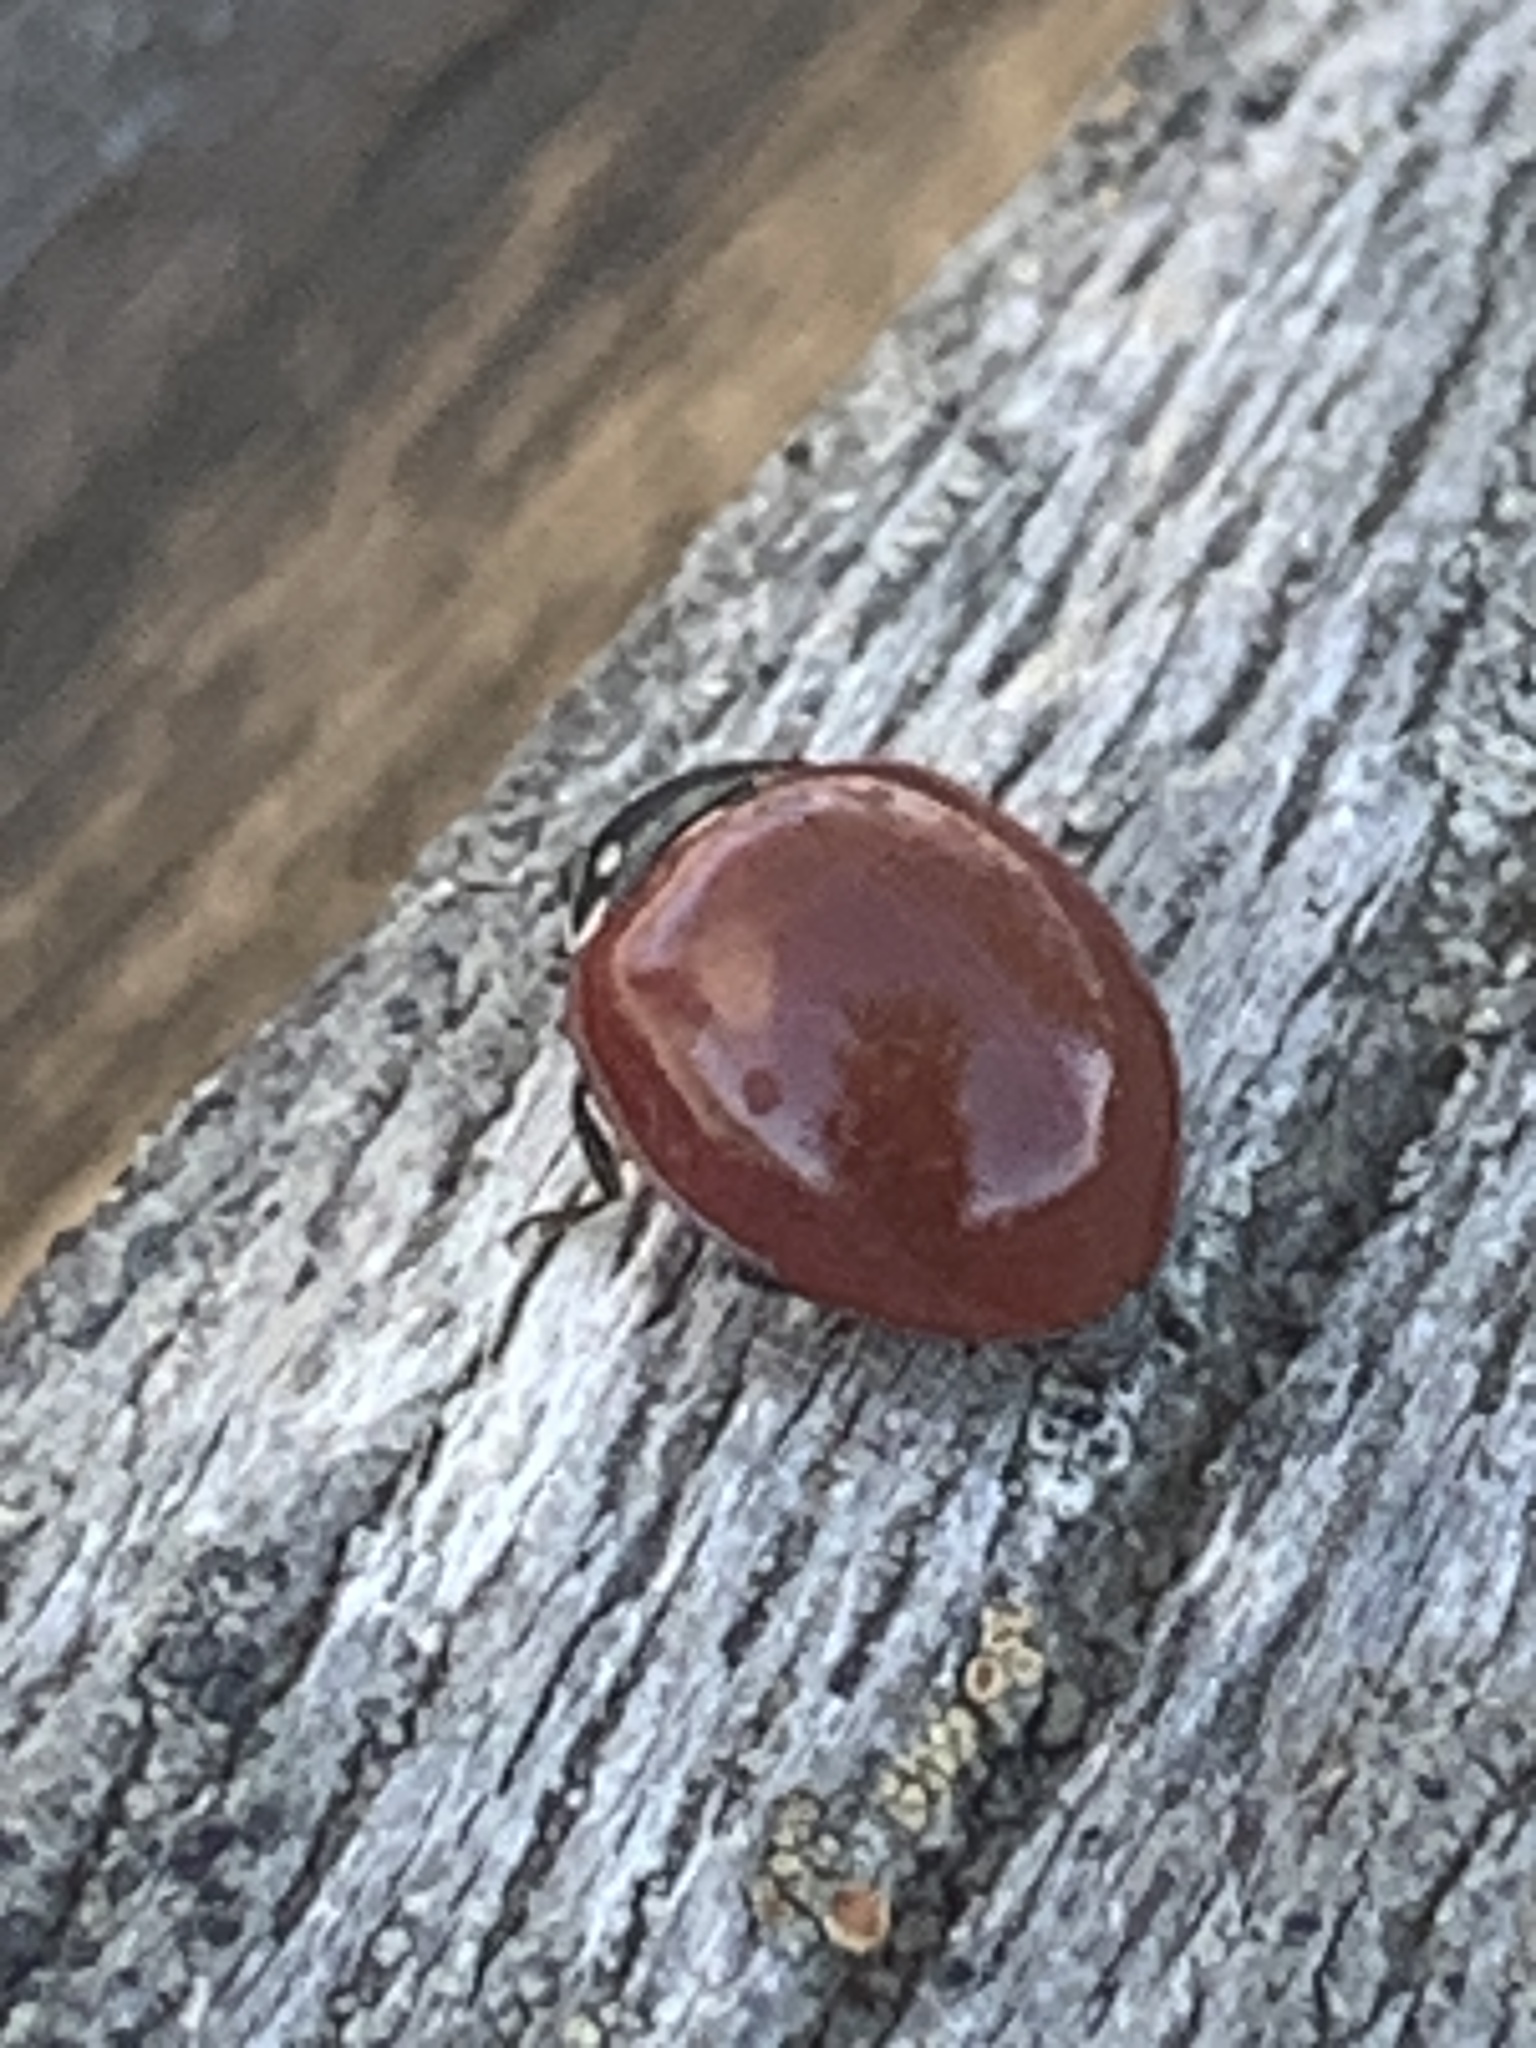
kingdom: Animalia
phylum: Arthropoda
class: Insecta
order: Coleoptera
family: Coccinellidae
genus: Cycloneda
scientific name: Cycloneda sanguinea
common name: Ladybird beetle
